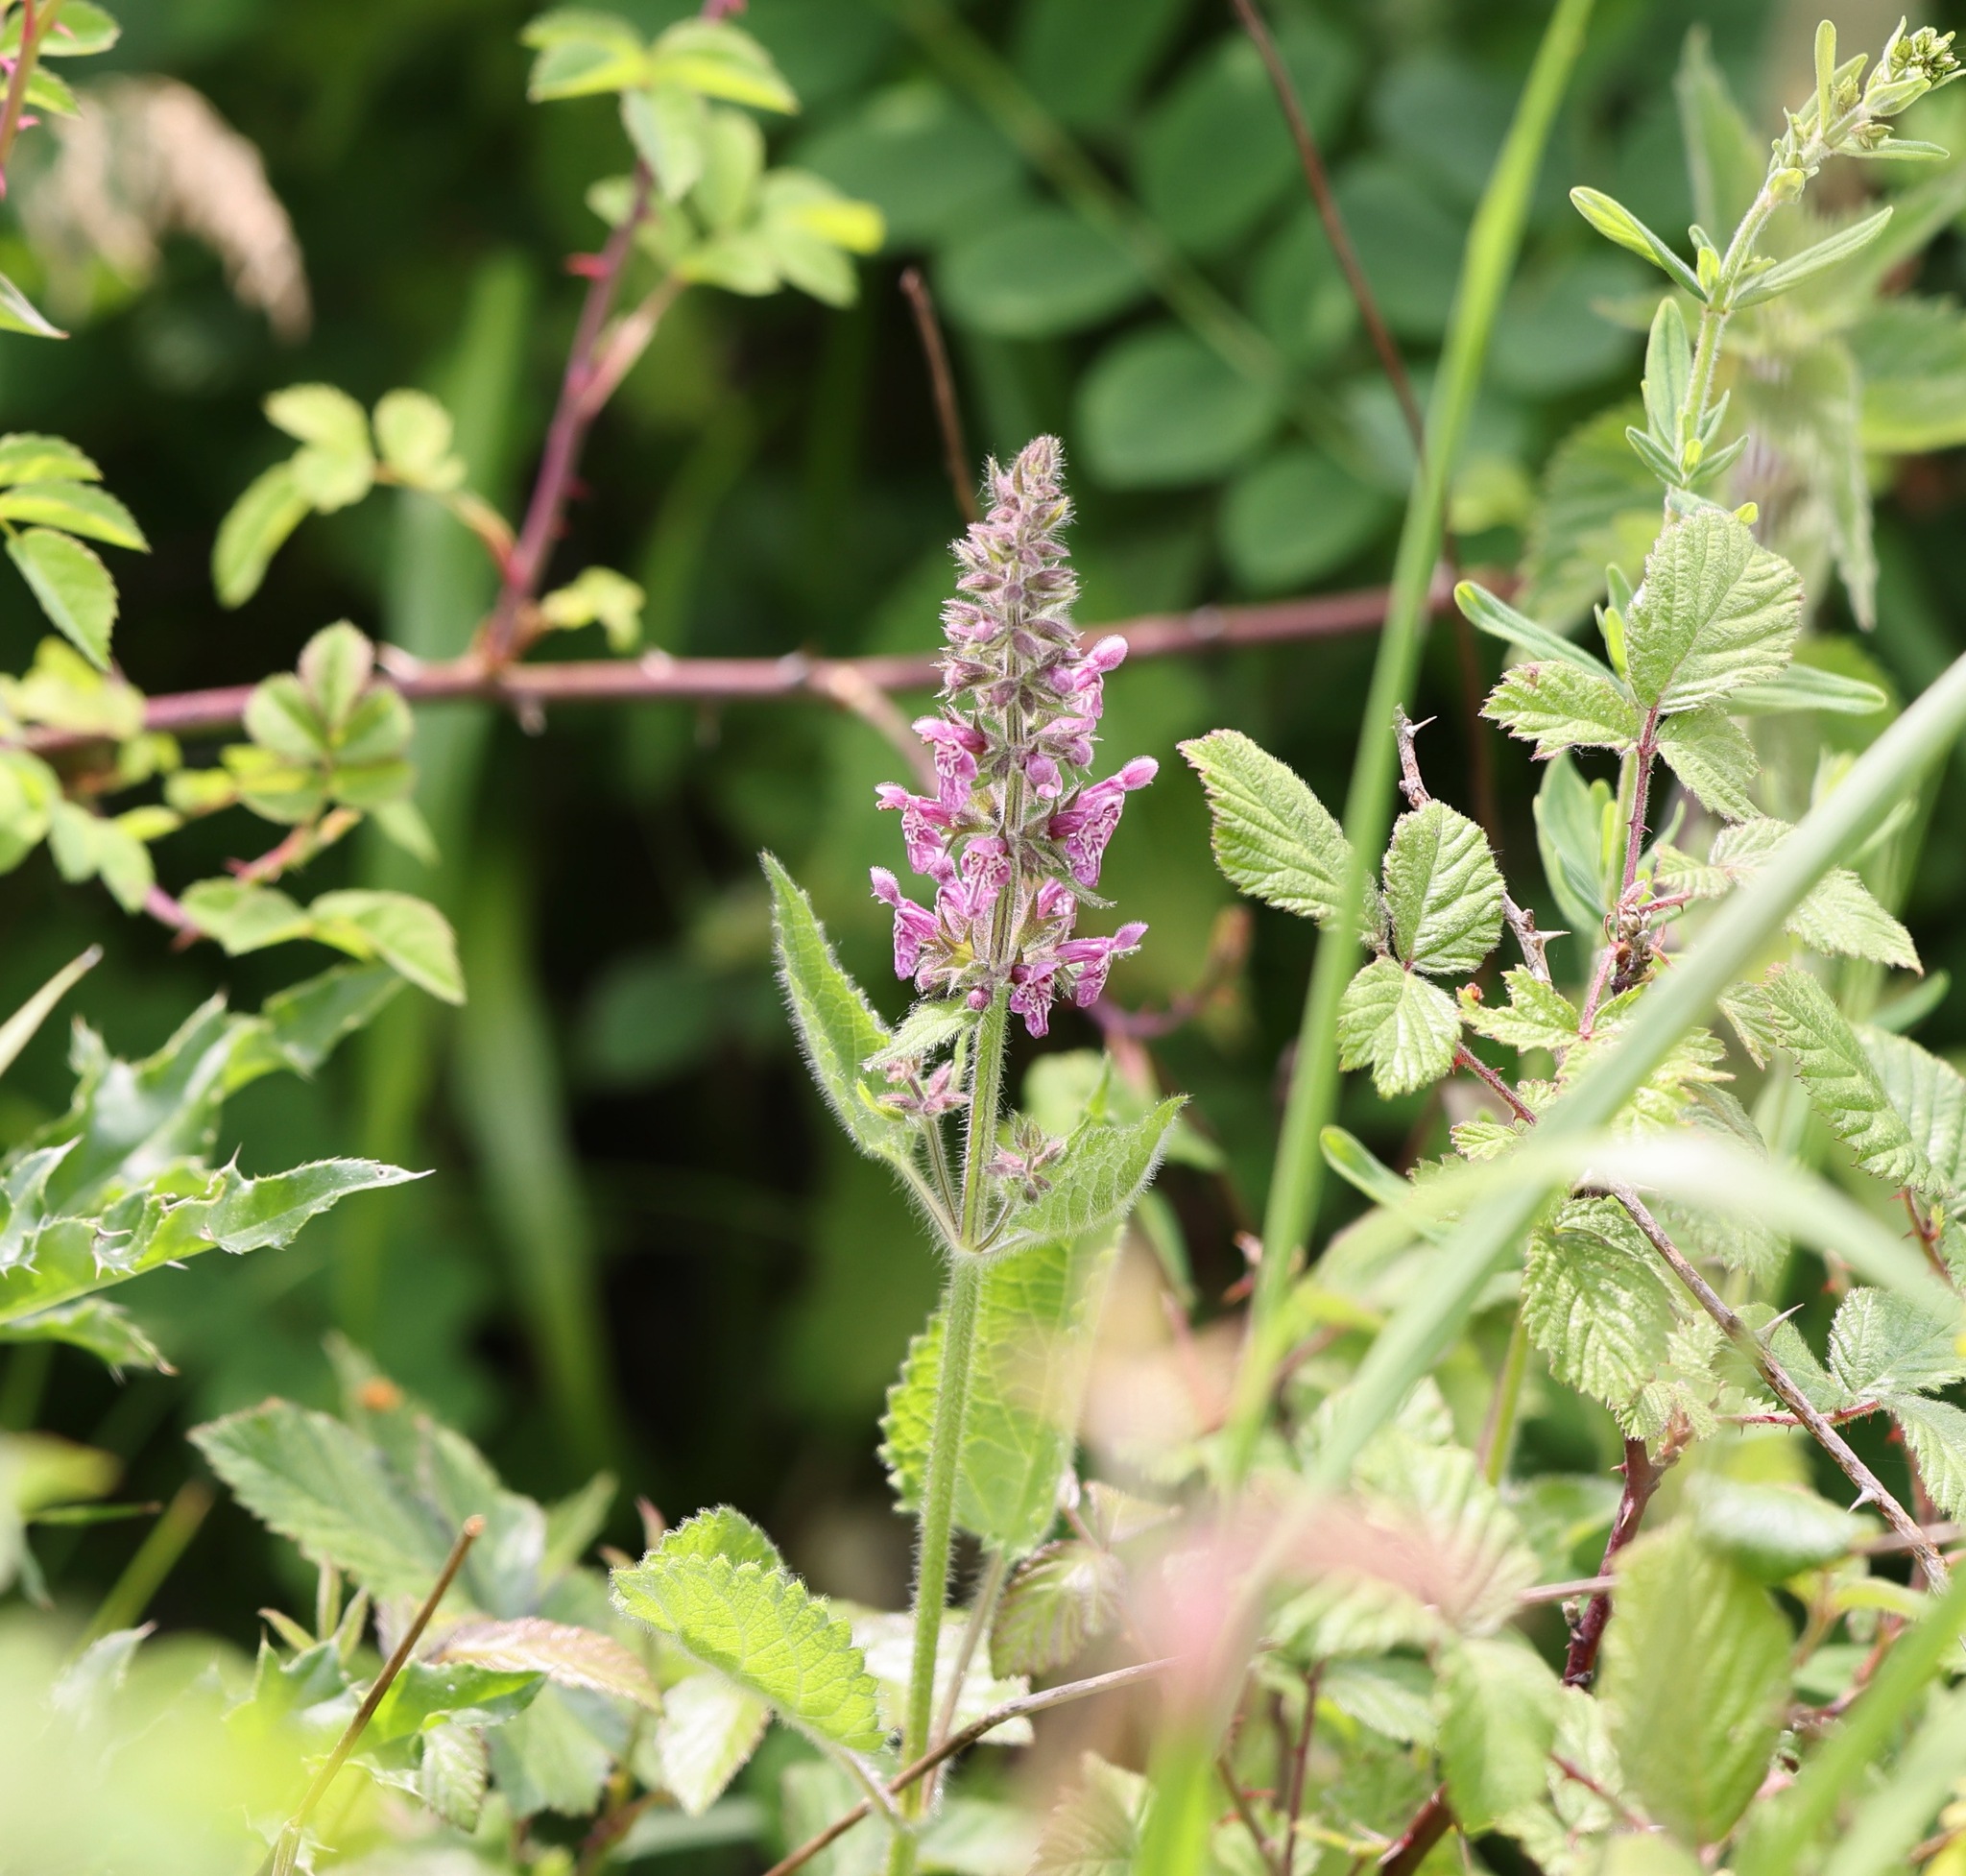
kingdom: Plantae
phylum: Tracheophyta
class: Magnoliopsida
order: Lamiales
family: Lamiaceae
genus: Stachys
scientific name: Stachys sylvatica
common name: Hedge woundwort
